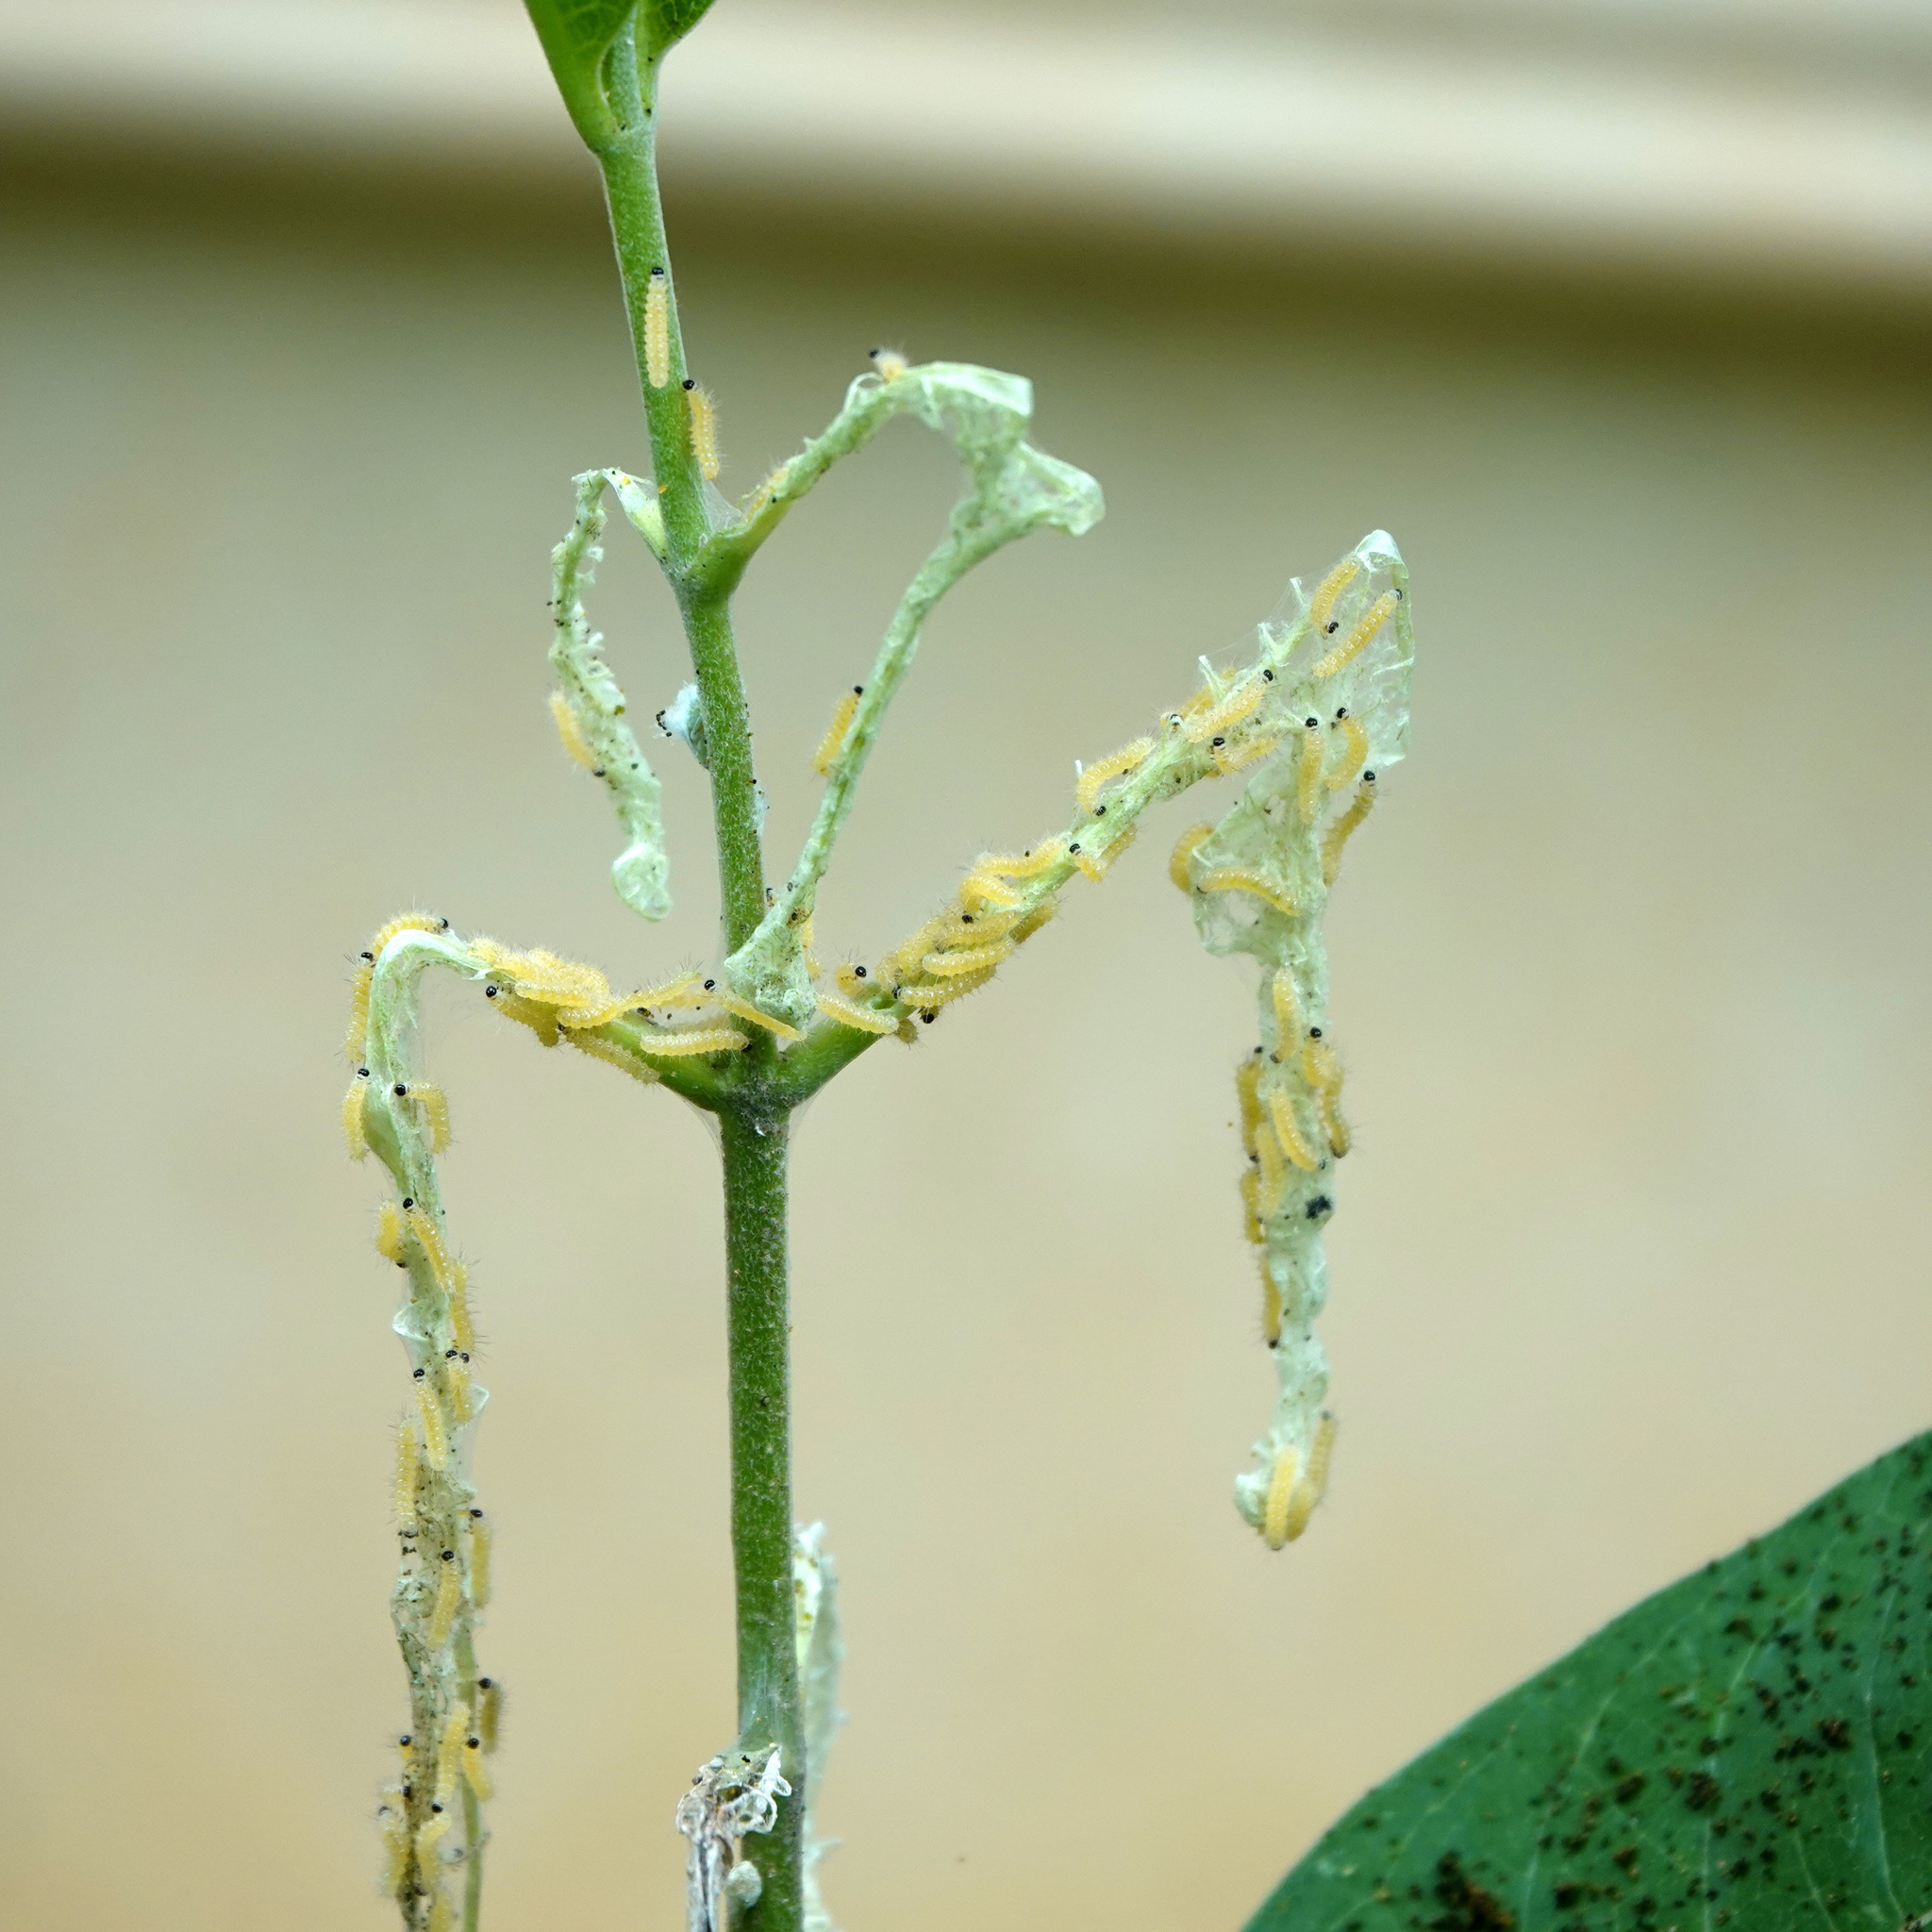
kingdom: Animalia
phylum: Arthropoda
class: Insecta
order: Lepidoptera
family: Erebidae
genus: Euchaetes
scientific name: Euchaetes egle
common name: Milkweed tussock moth
